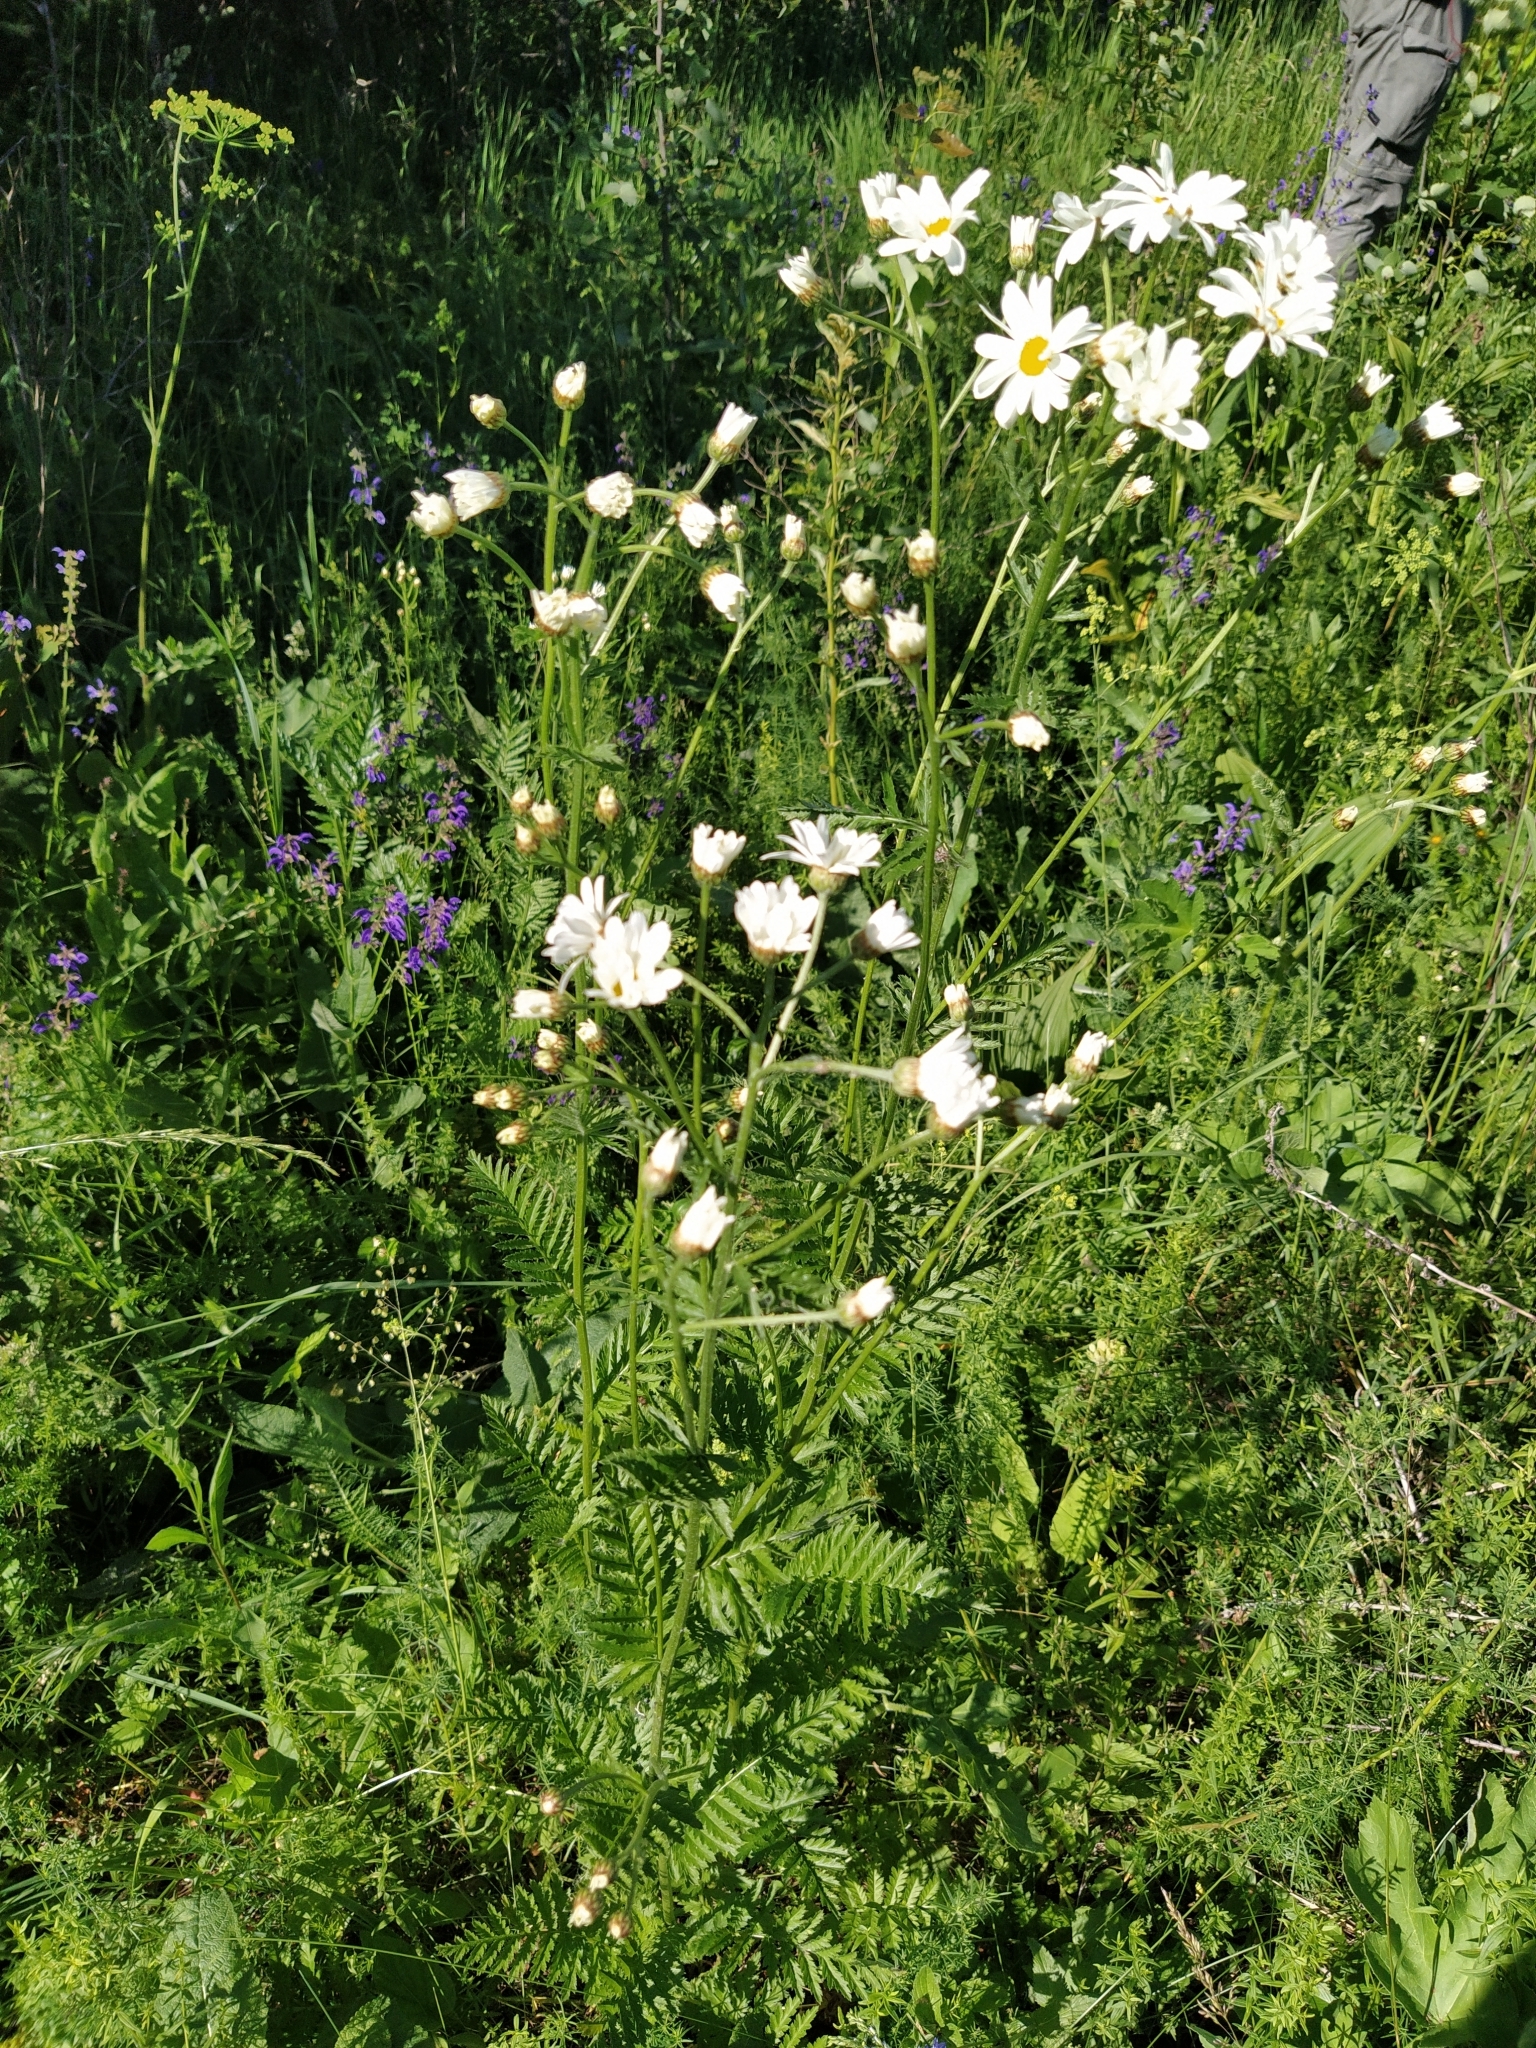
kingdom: Plantae
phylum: Tracheophyta
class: Magnoliopsida
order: Asterales
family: Asteraceae
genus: Tanacetum
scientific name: Tanacetum corymbosum
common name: Scentless feverfew
